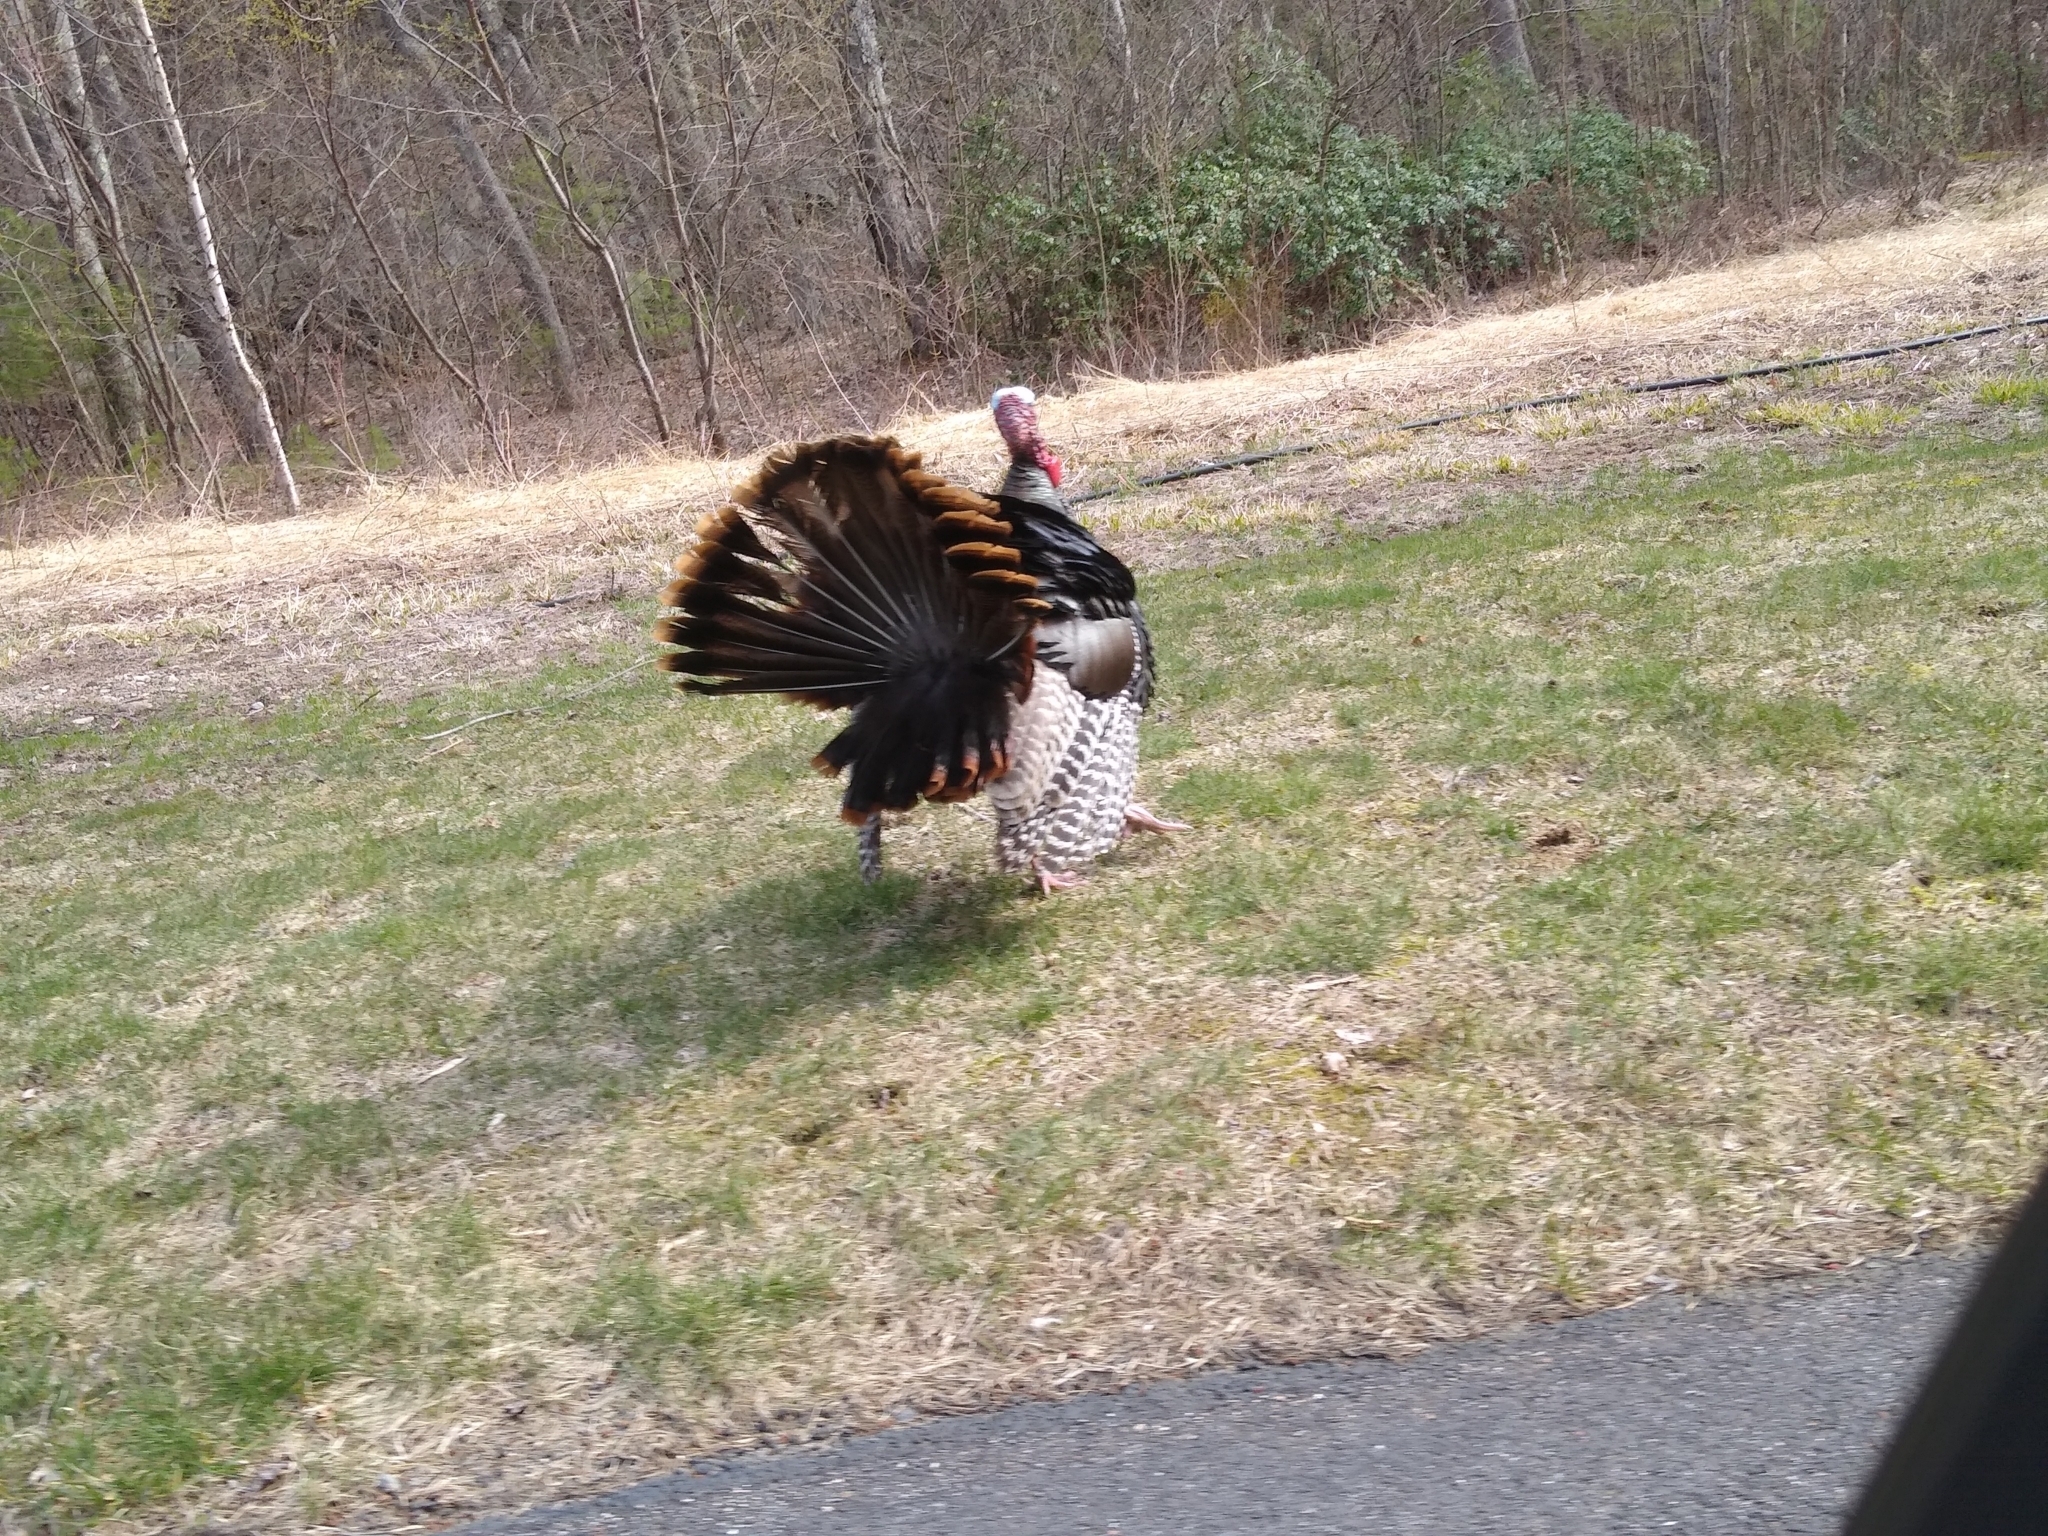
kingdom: Animalia
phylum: Chordata
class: Aves
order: Galliformes
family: Phasianidae
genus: Meleagris
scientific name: Meleagris gallopavo
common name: Wild turkey
